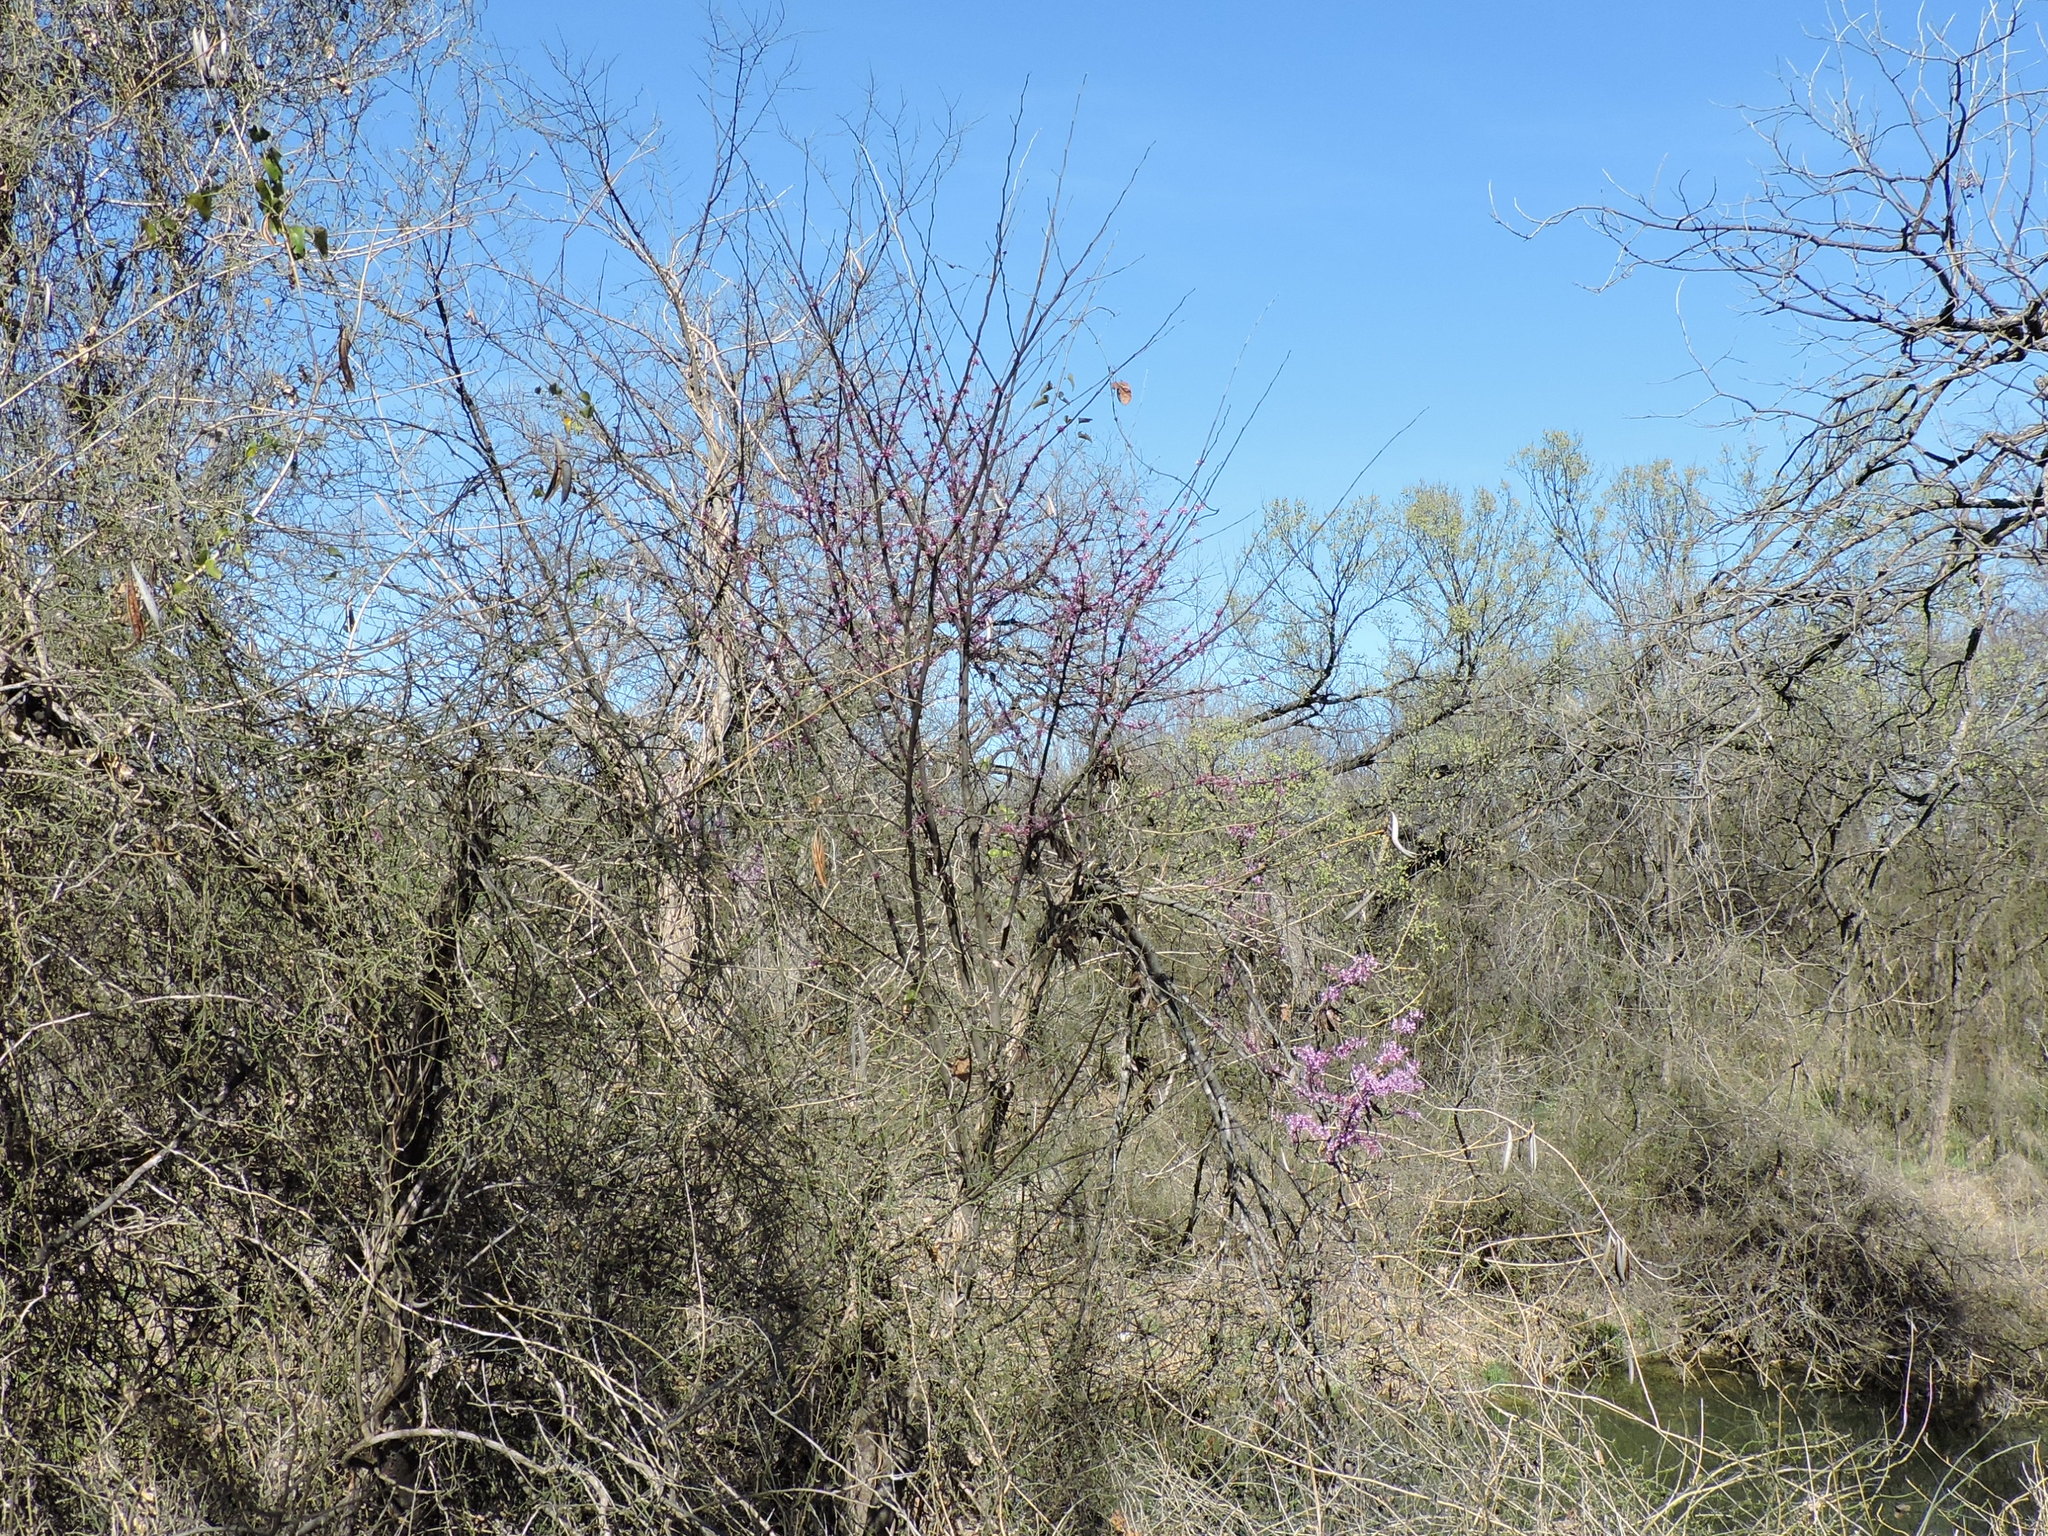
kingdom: Plantae
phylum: Tracheophyta
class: Magnoliopsida
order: Fabales
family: Fabaceae
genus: Cercis
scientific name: Cercis canadensis
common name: Eastern redbud
